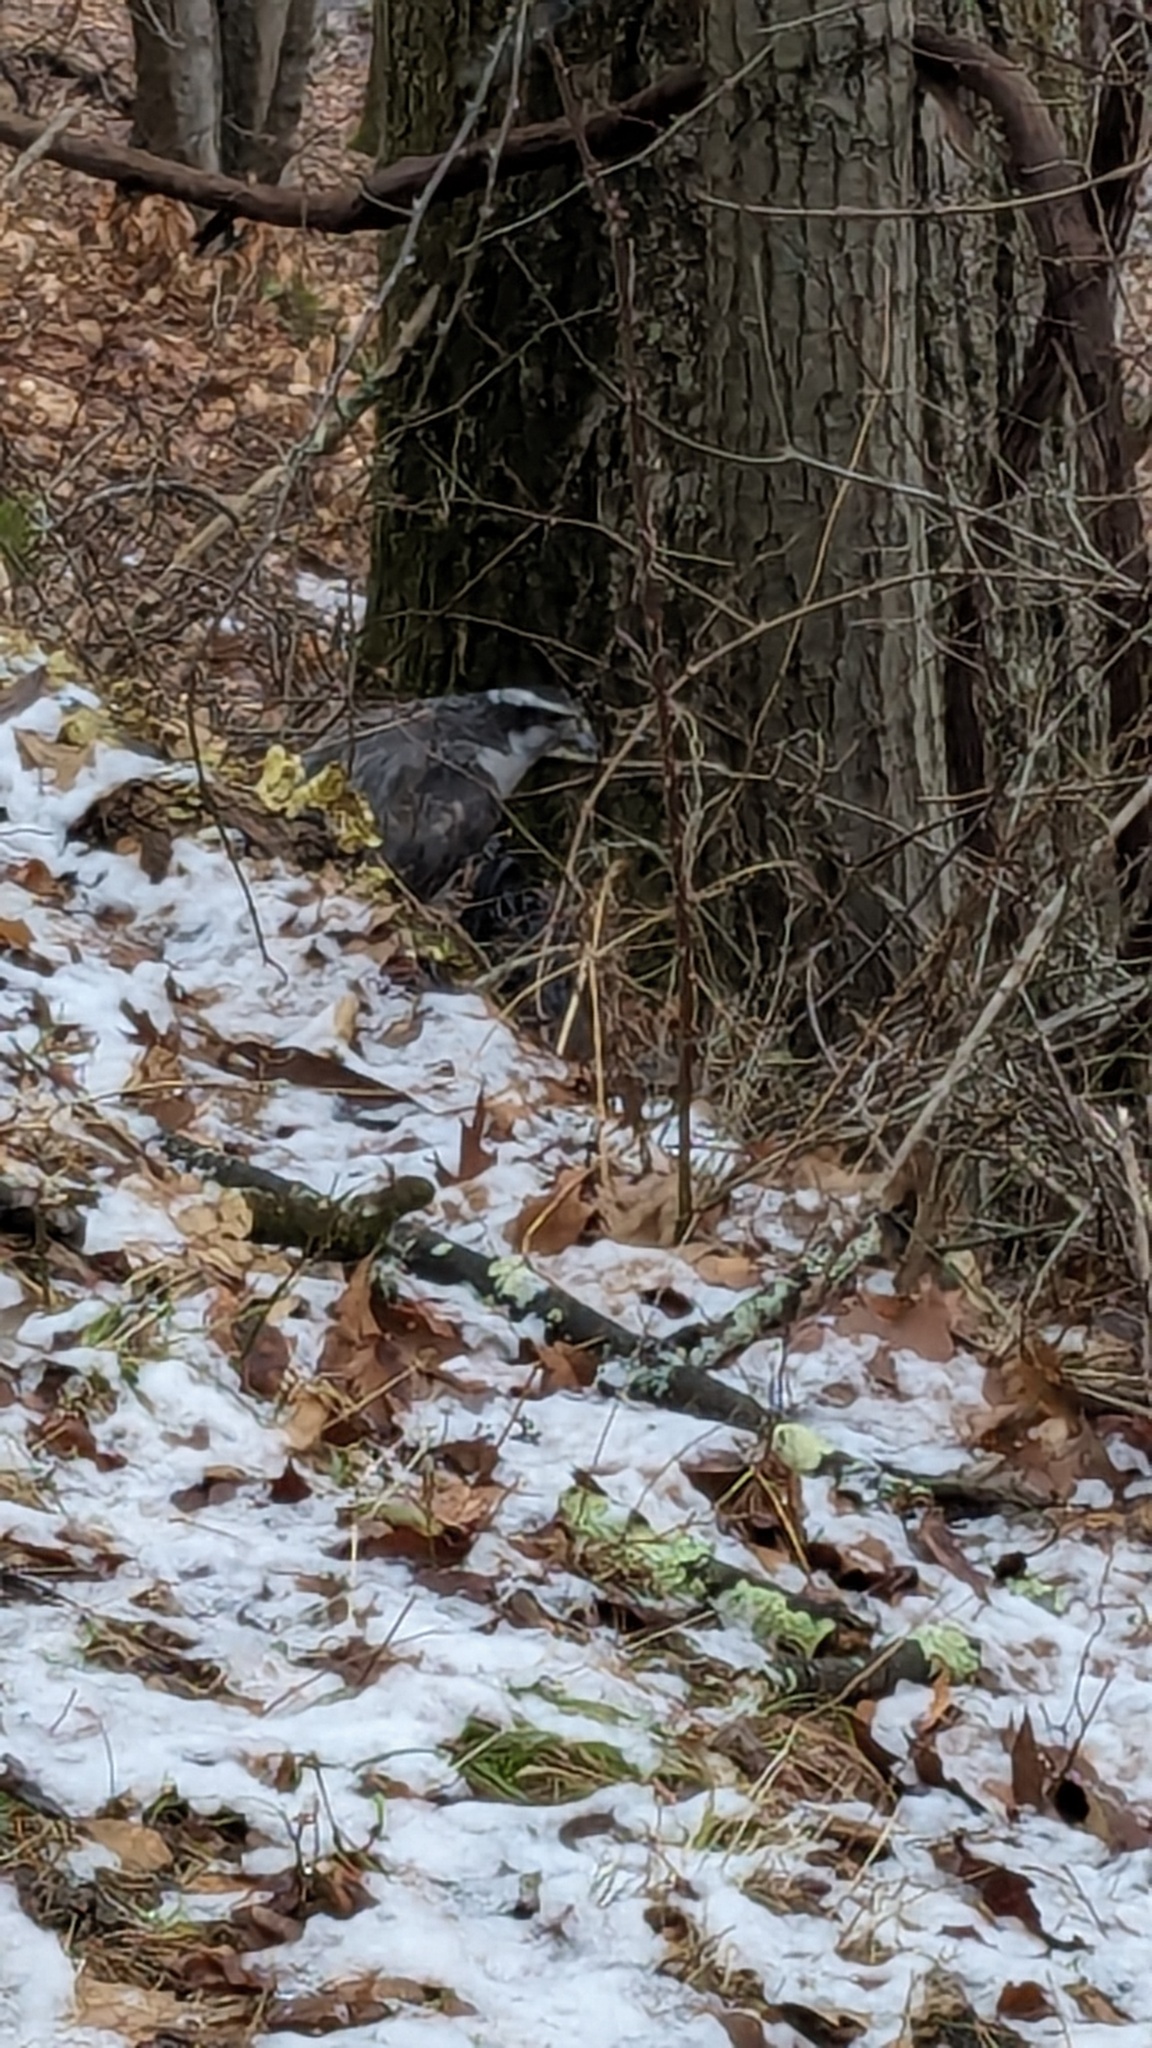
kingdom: Animalia
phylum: Chordata
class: Aves
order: Accipitriformes
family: Accipitridae
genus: Accipiter
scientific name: Accipiter gentilis
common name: Northern goshawk
